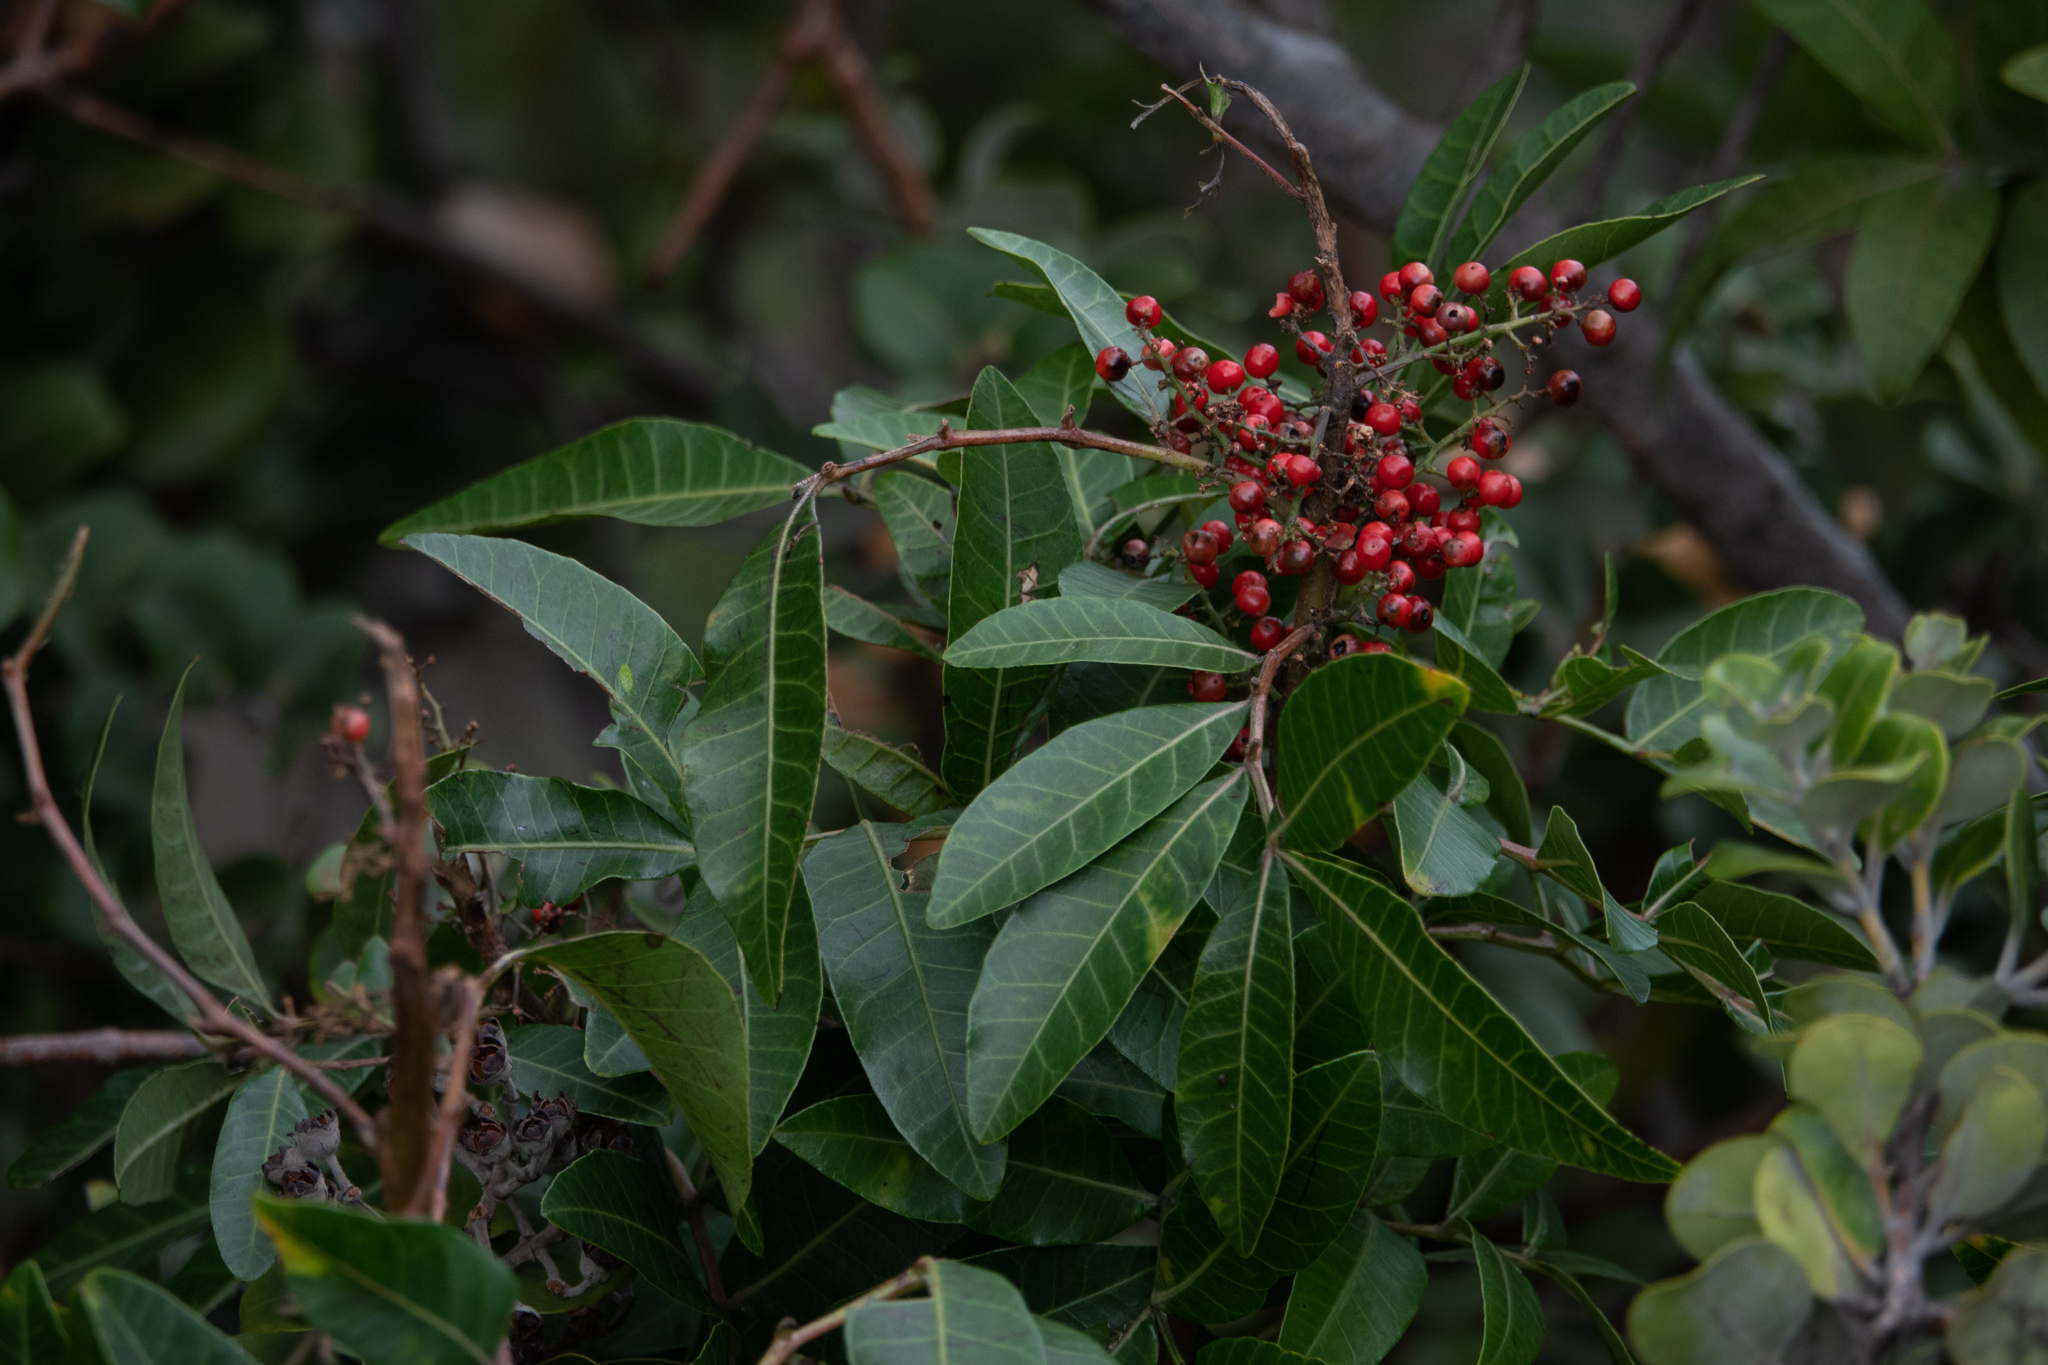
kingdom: Plantae
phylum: Tracheophyta
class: Magnoliopsida
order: Sapindales
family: Anacardiaceae
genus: Schinus
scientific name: Schinus terebinthifolia
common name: Brazilian peppertree
